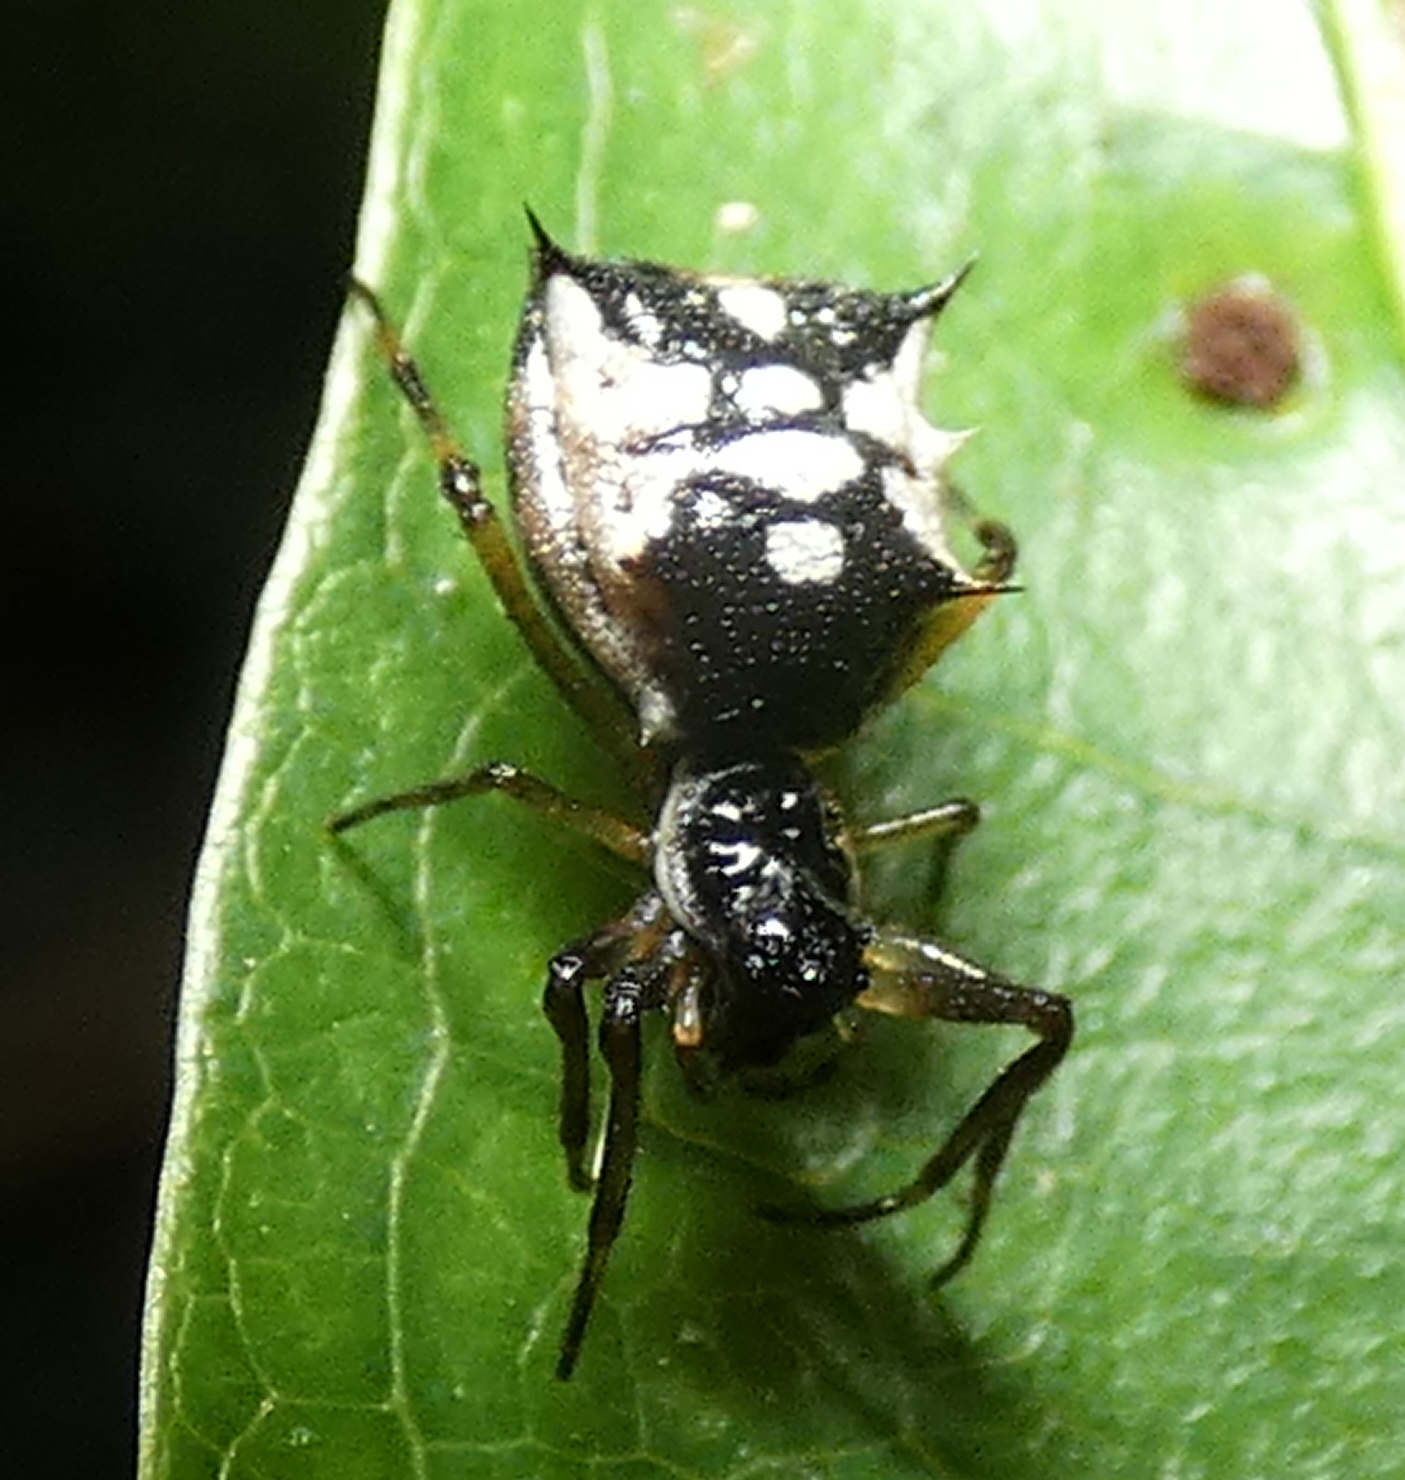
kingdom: Animalia
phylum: Arthropoda
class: Arachnida
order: Araneae
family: Araneidae
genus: Micrathena
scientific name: Micrathena picta
